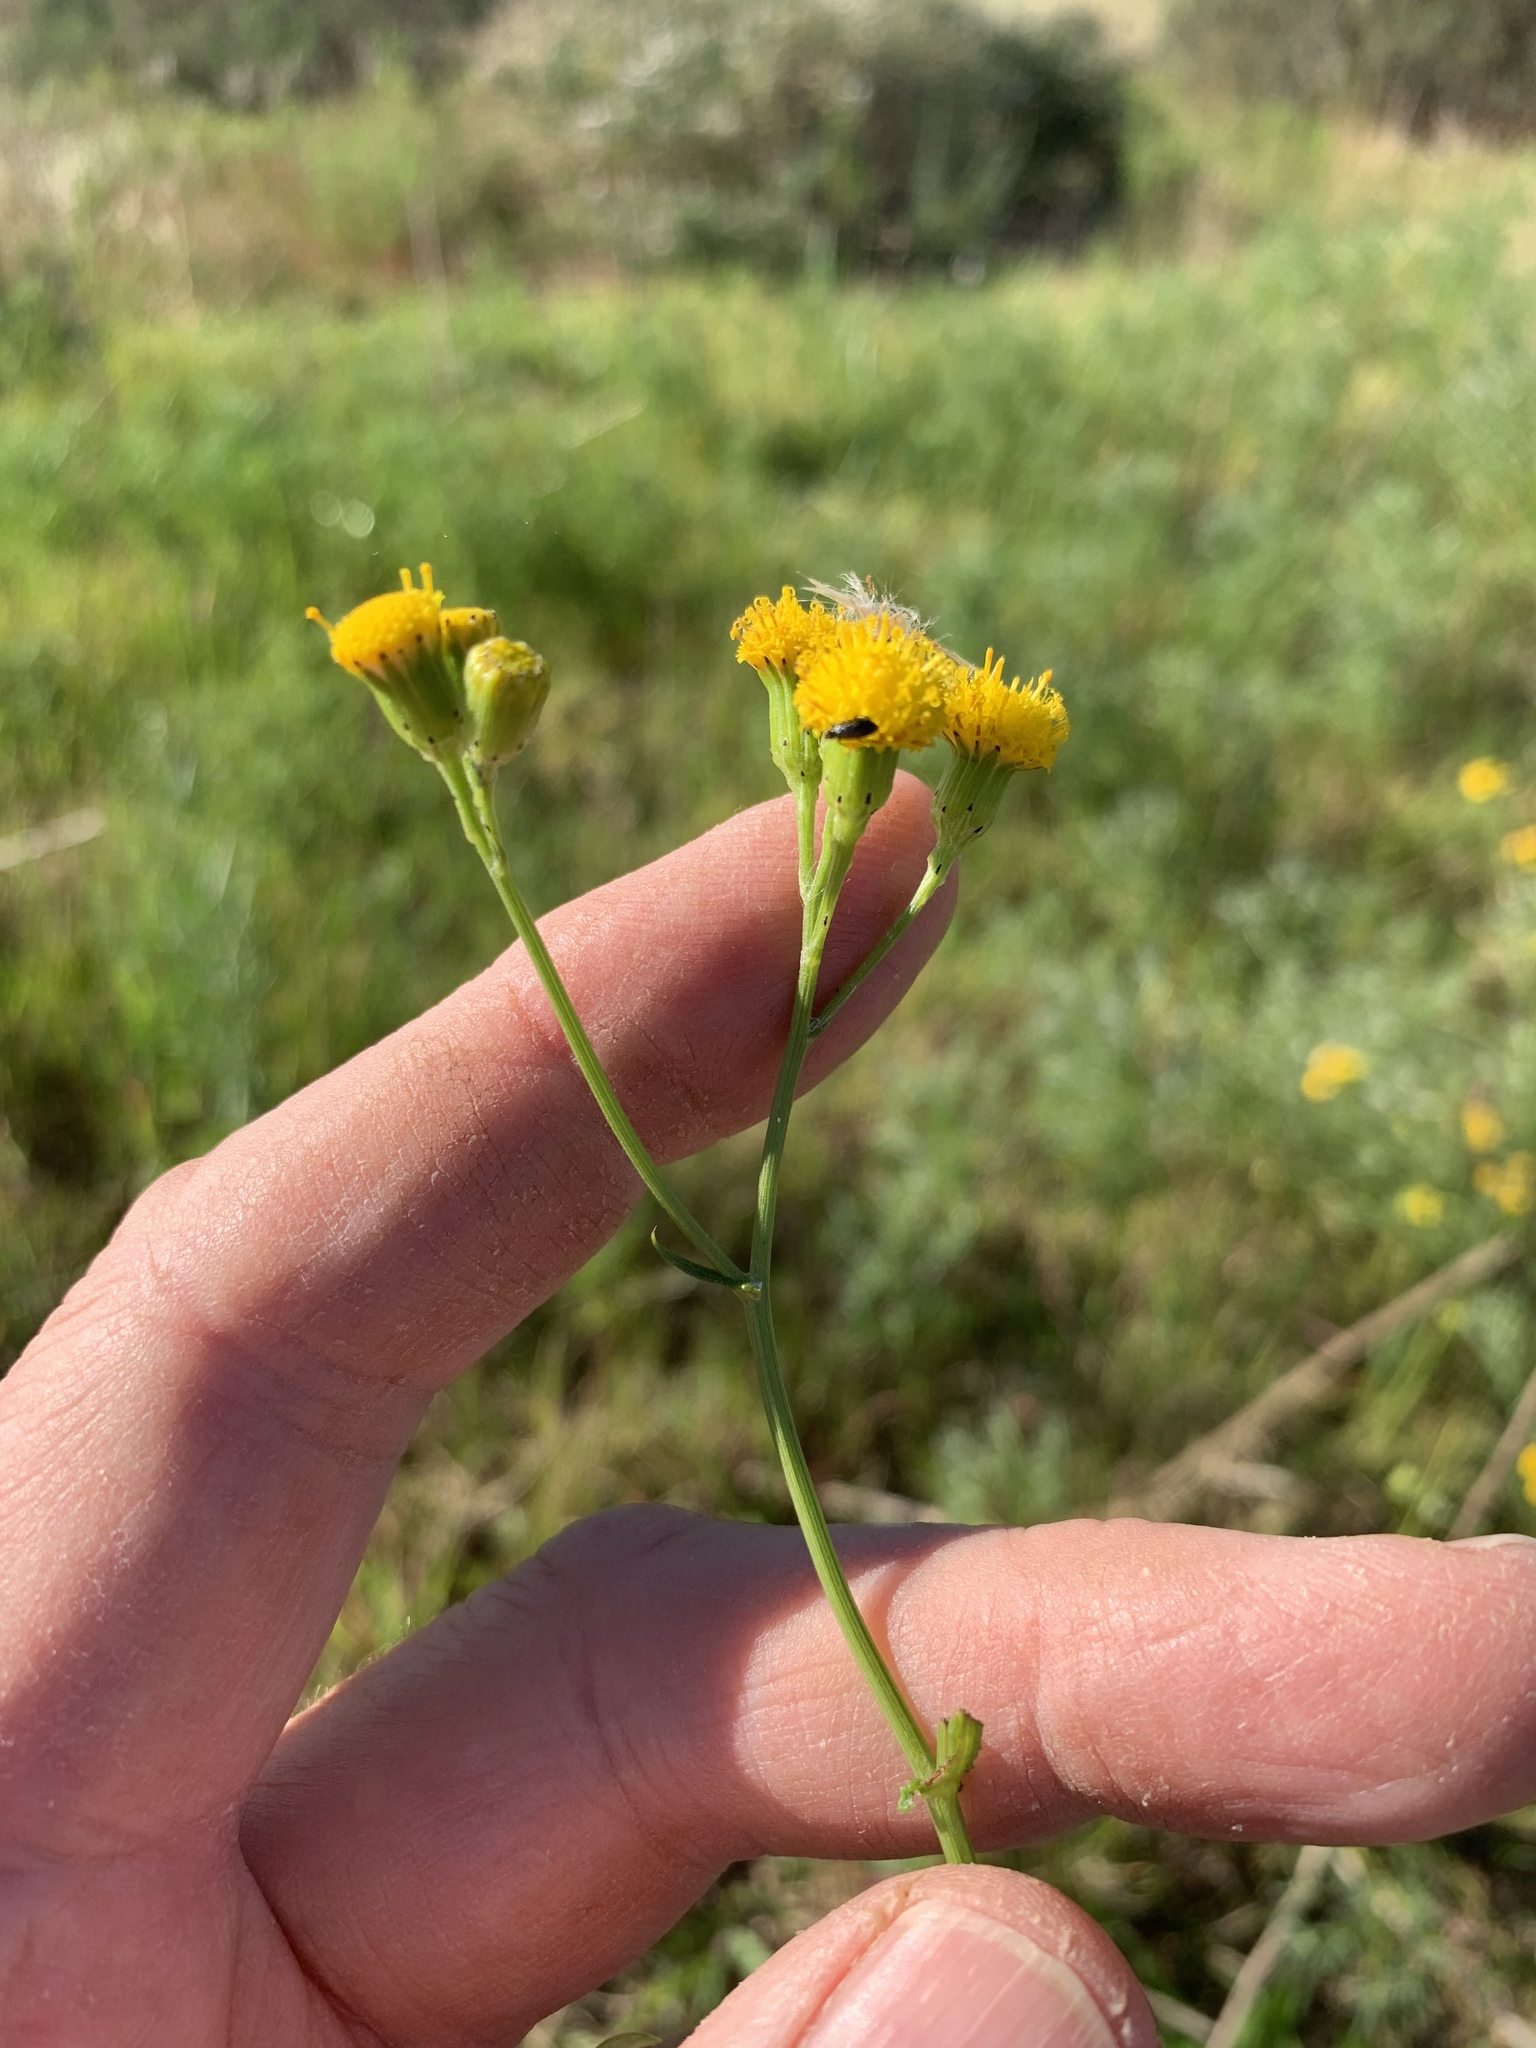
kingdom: Plantae
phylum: Tracheophyta
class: Magnoliopsida
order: Asterales
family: Asteraceae
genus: Senecio
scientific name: Senecio burchellii
